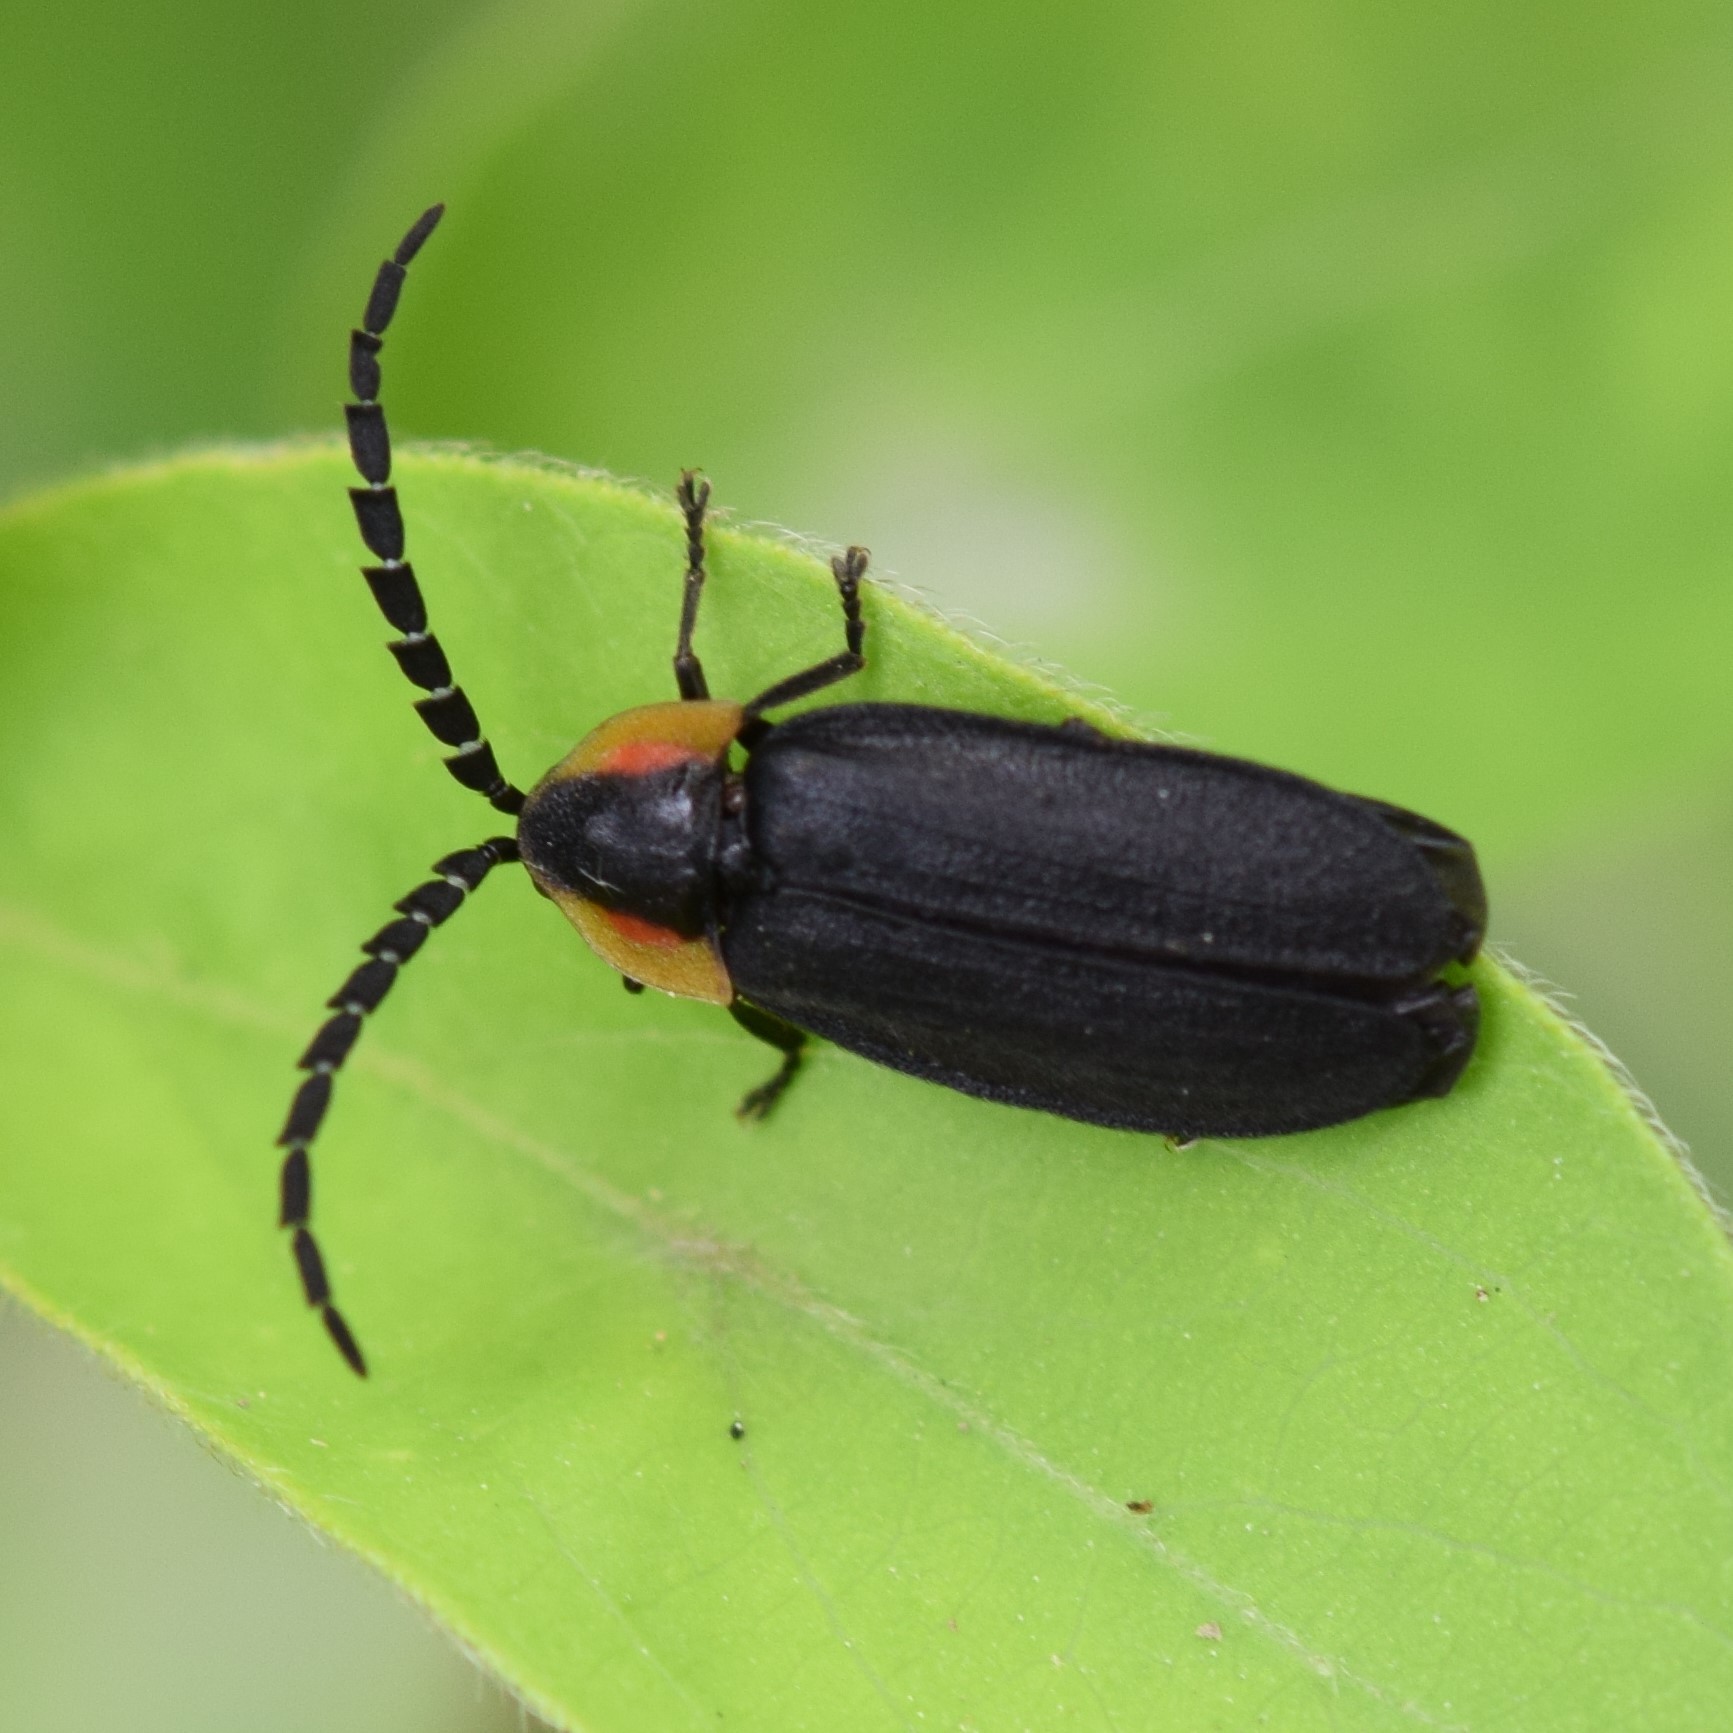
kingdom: Animalia
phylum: Arthropoda
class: Insecta
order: Coleoptera
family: Lampyridae
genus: Lucidota
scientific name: Lucidota atra
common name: Black firefly
